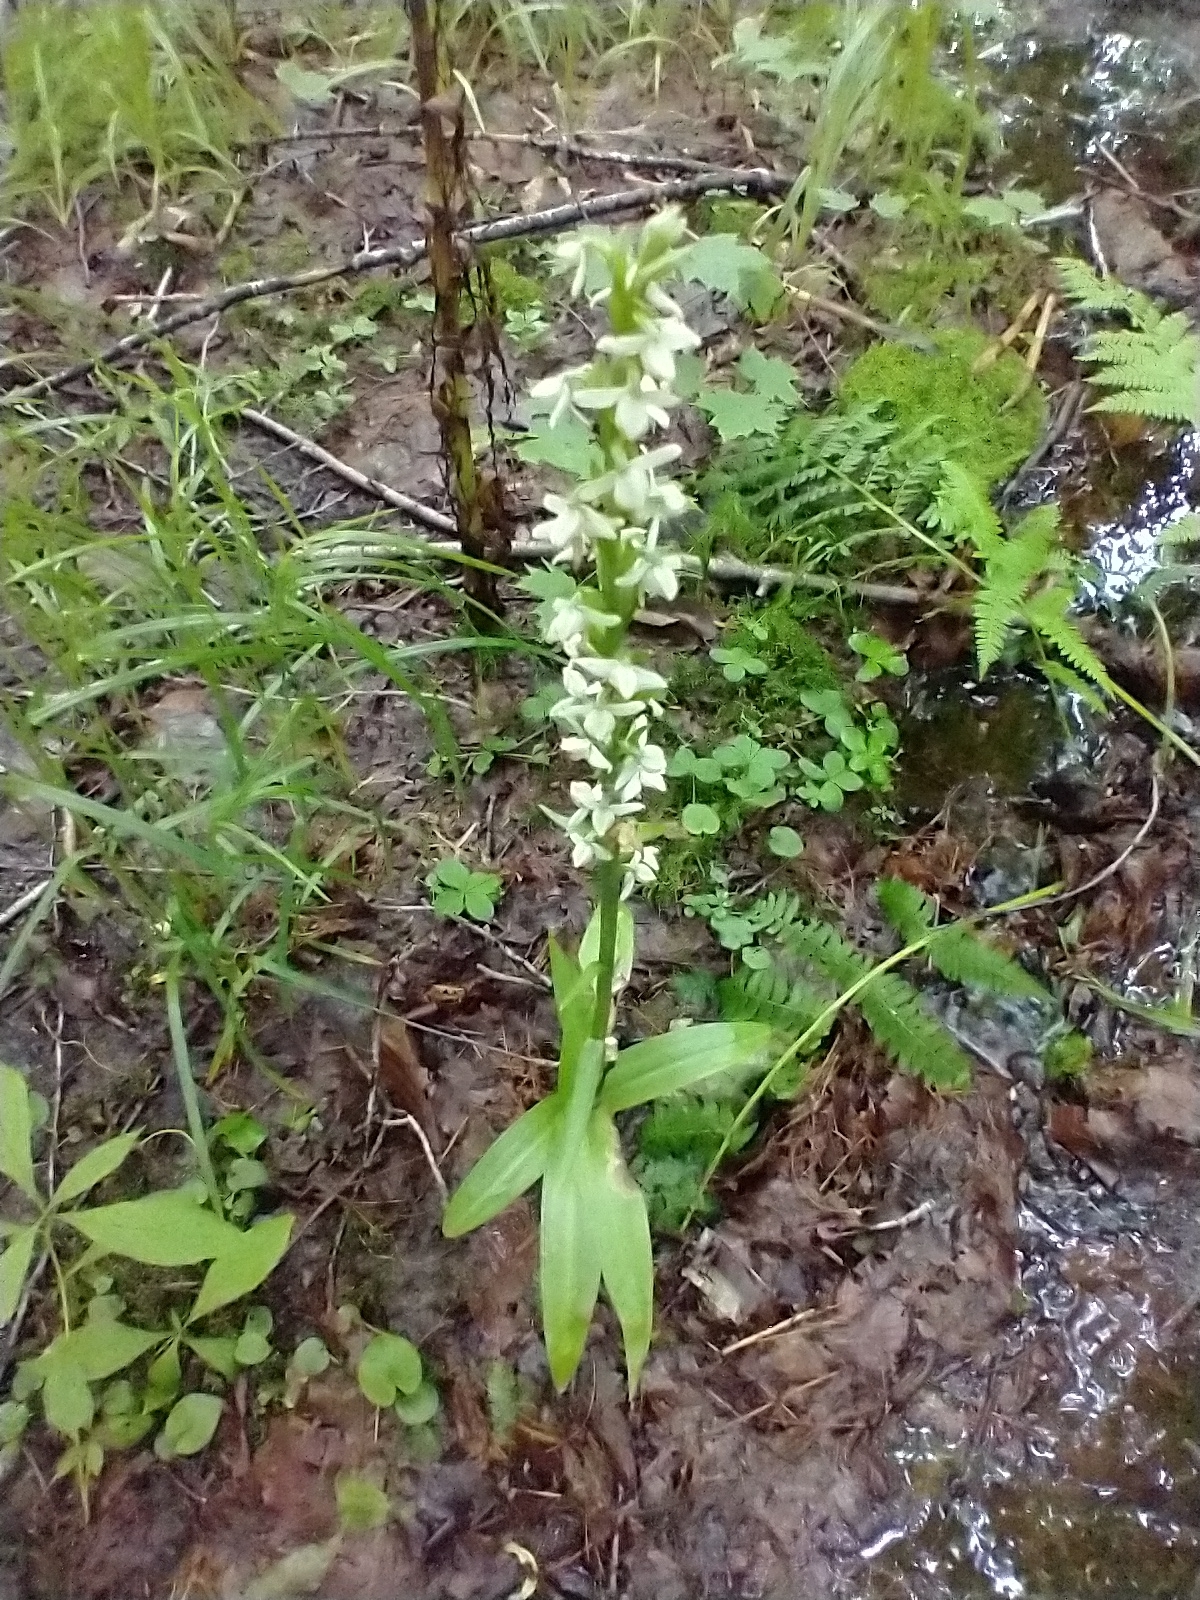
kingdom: Plantae
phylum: Tracheophyta
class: Liliopsida
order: Asparagales
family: Orchidaceae
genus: Platanthera
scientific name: Platanthera dilatata
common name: Bog candles
